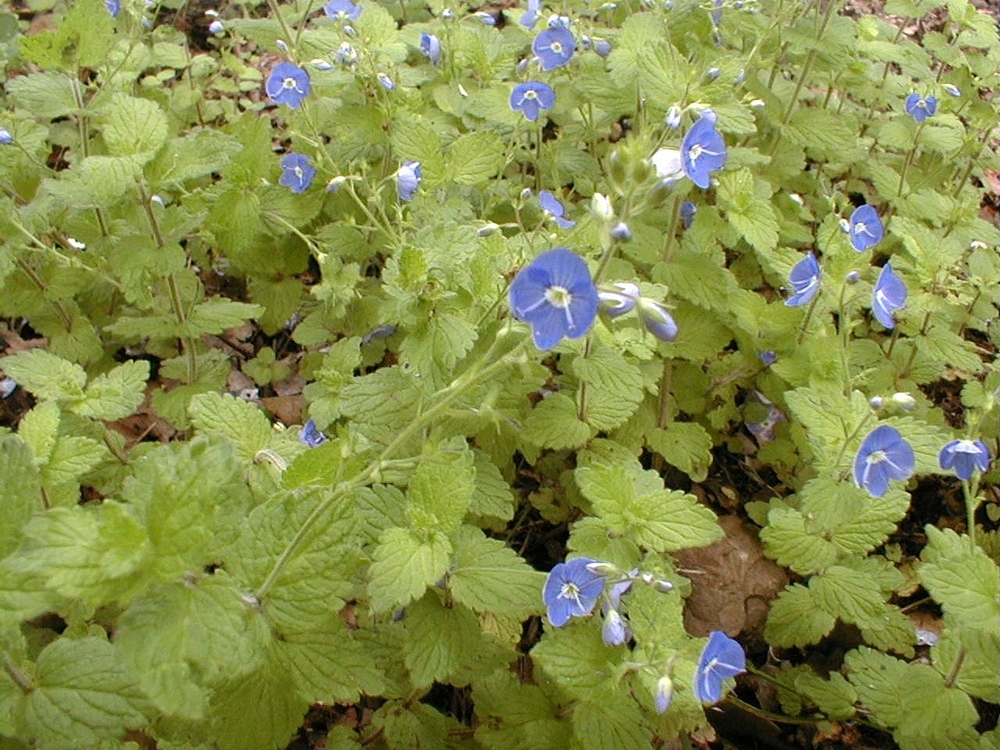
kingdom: Plantae
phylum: Tracheophyta
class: Magnoliopsida
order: Lamiales
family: Plantaginaceae
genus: Veronica
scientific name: Veronica chamaedrys
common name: Germander speedwell
